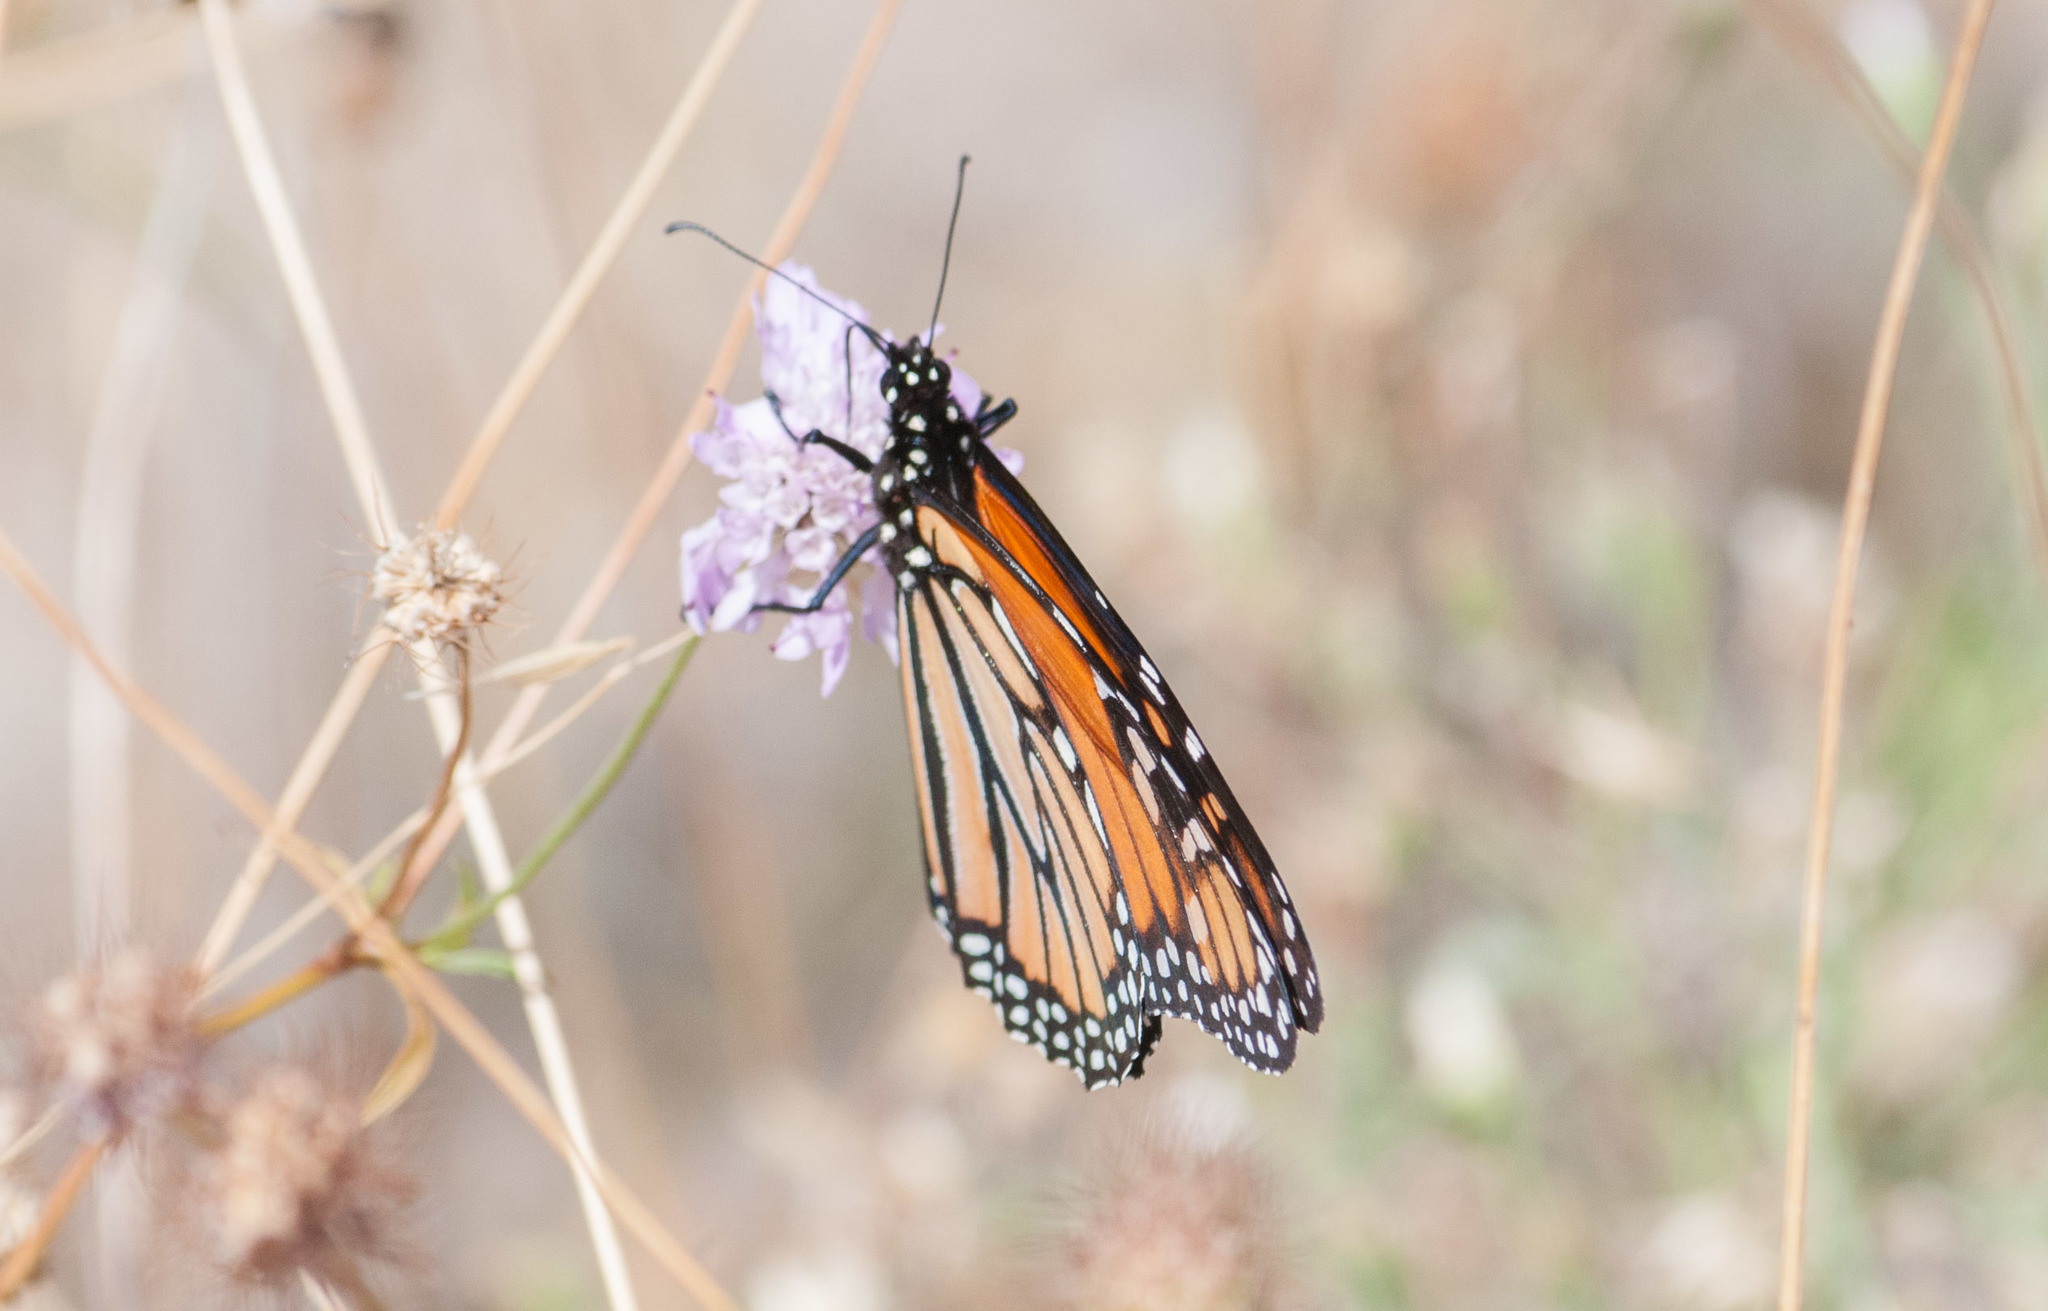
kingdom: Animalia
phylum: Arthropoda
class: Insecta
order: Lepidoptera
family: Nymphalidae
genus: Danaus
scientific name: Danaus plexippus
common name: Monarch
